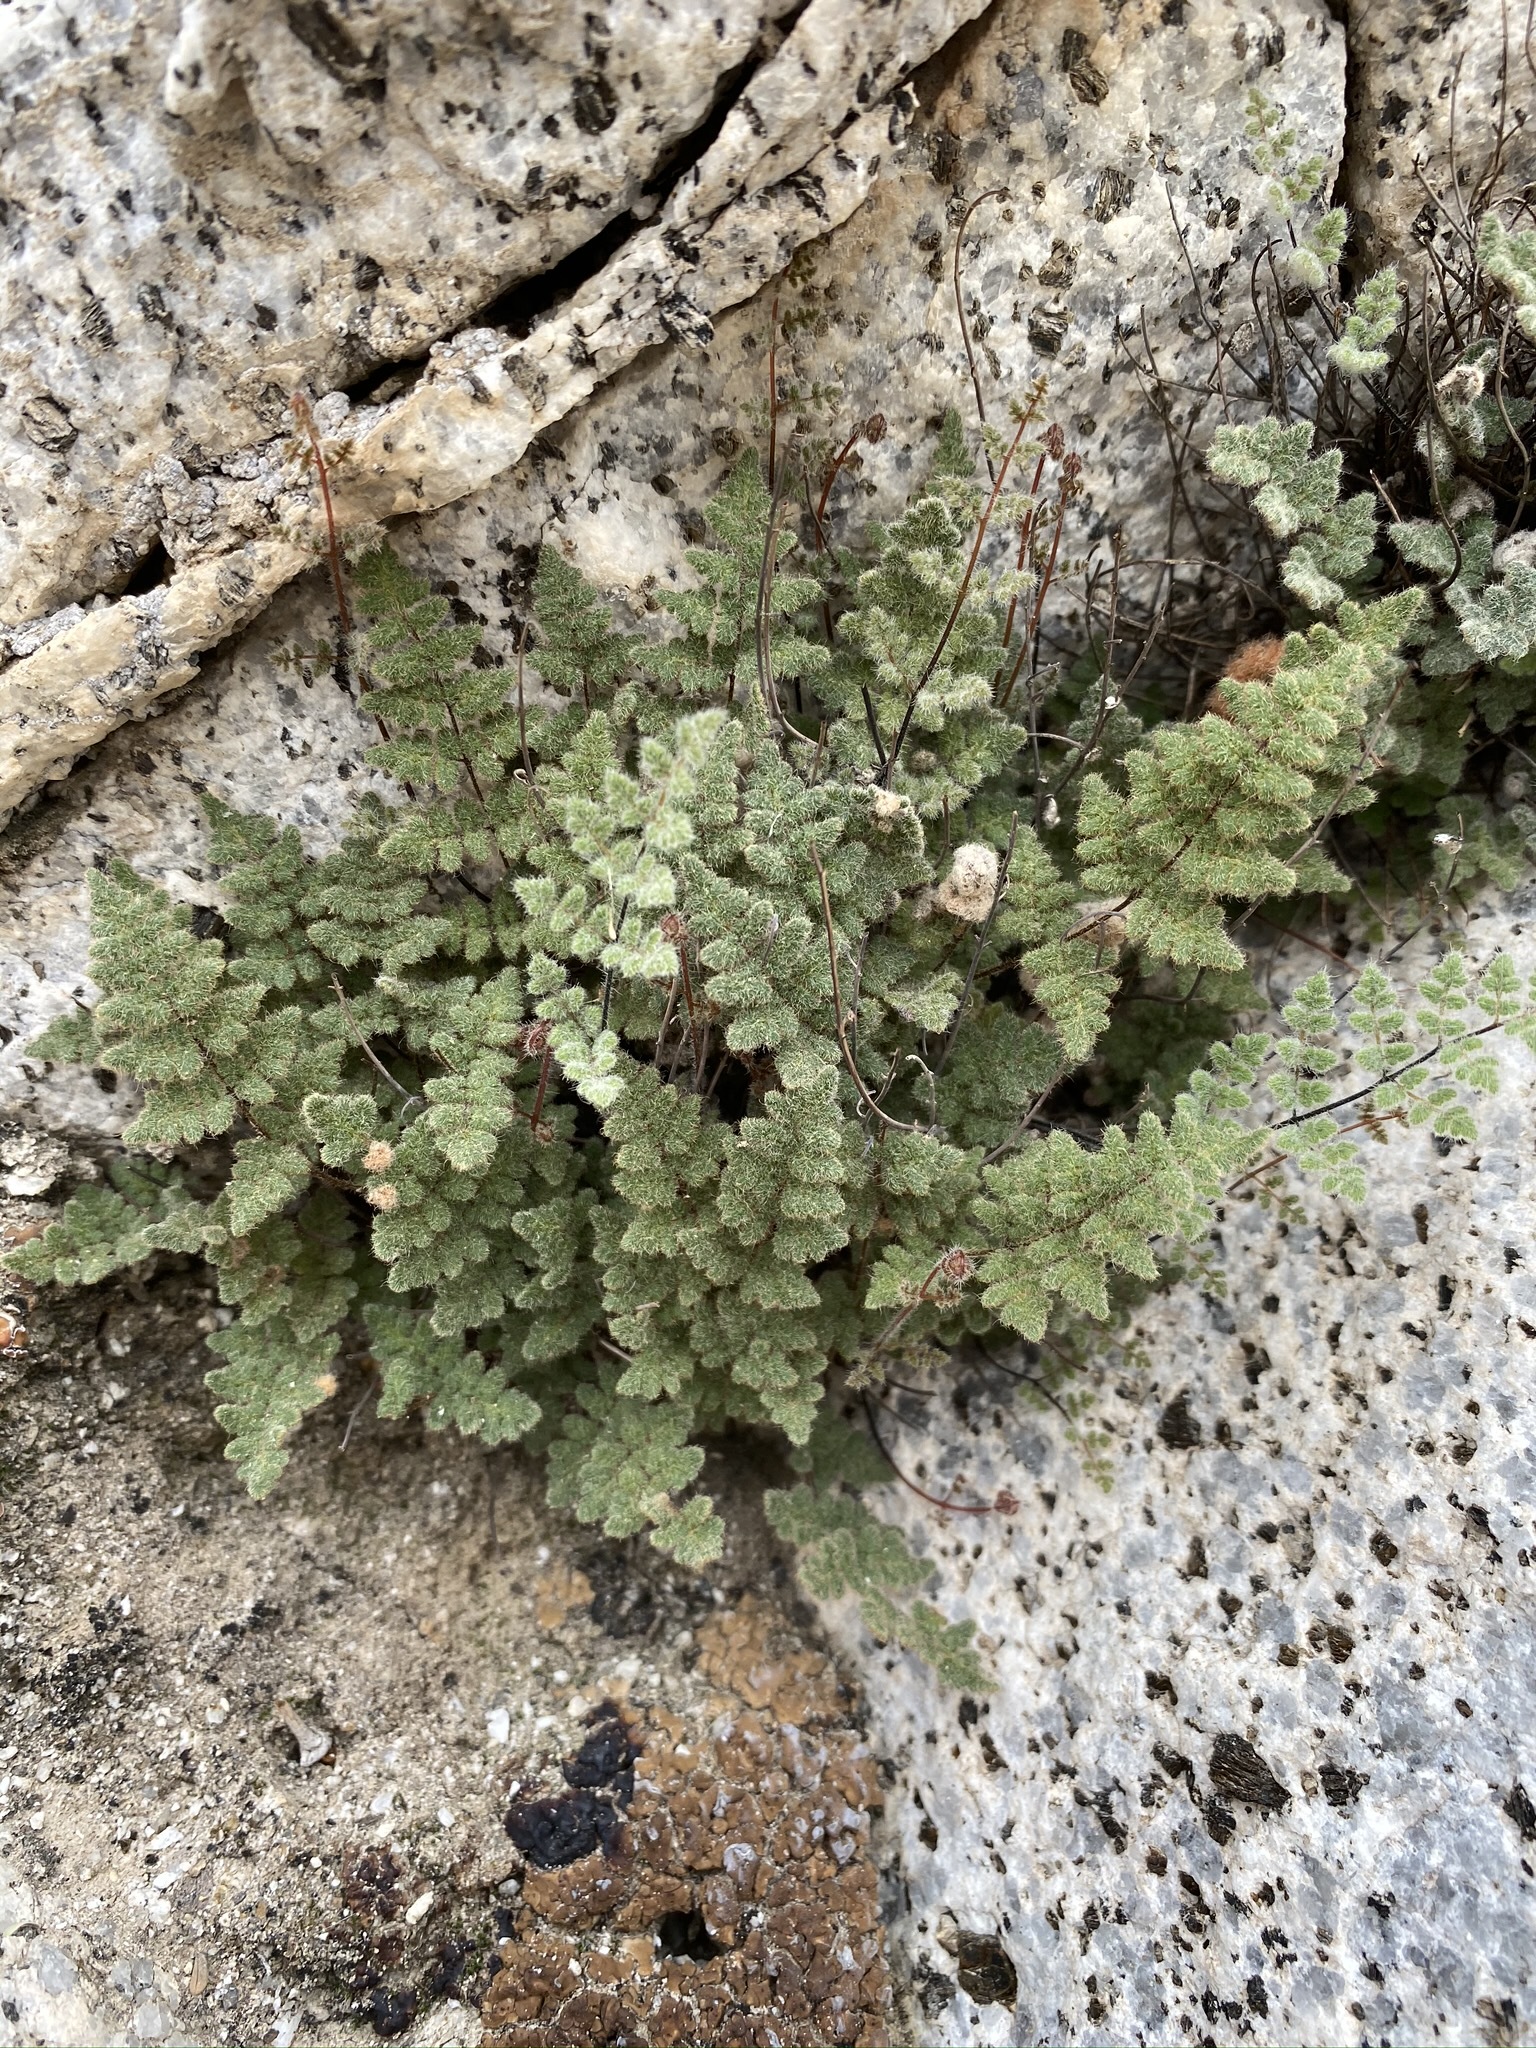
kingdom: Plantae
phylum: Tracheophyta
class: Polypodiopsida
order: Polypodiales
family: Pteridaceae
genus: Myriopteris
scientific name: Myriopteris parryi
